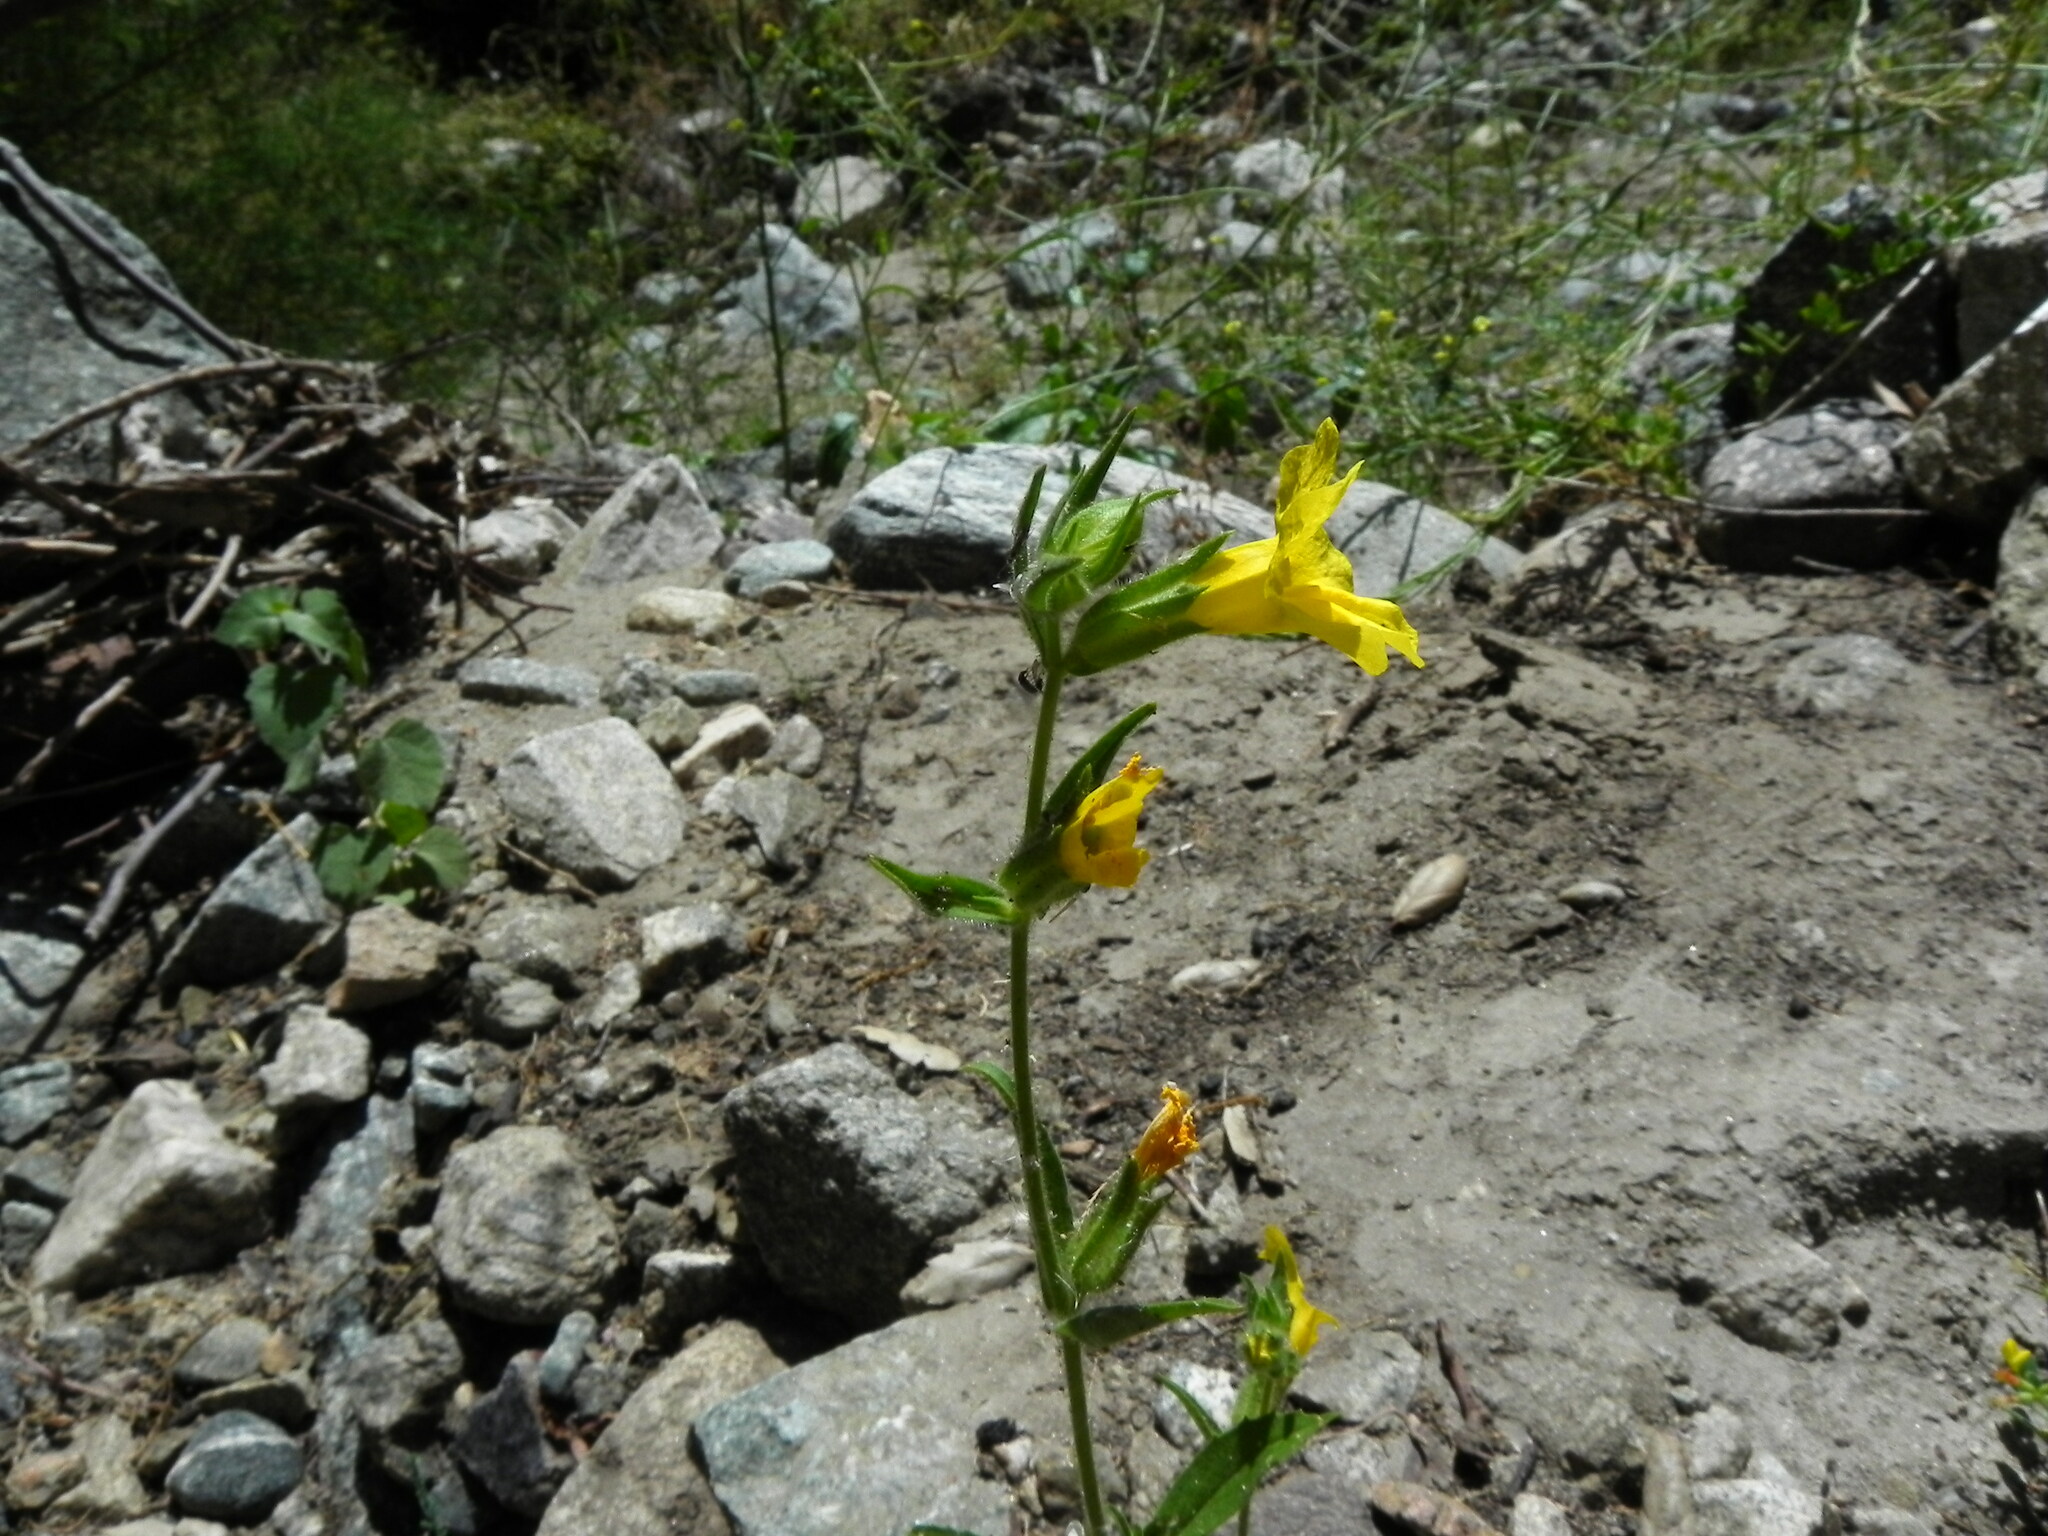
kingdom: Plantae
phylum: Tracheophyta
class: Magnoliopsida
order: Lamiales
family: Phrymaceae
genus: Diplacus
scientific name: Diplacus brevipes
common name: Wide-throat yellow monkey-flower
